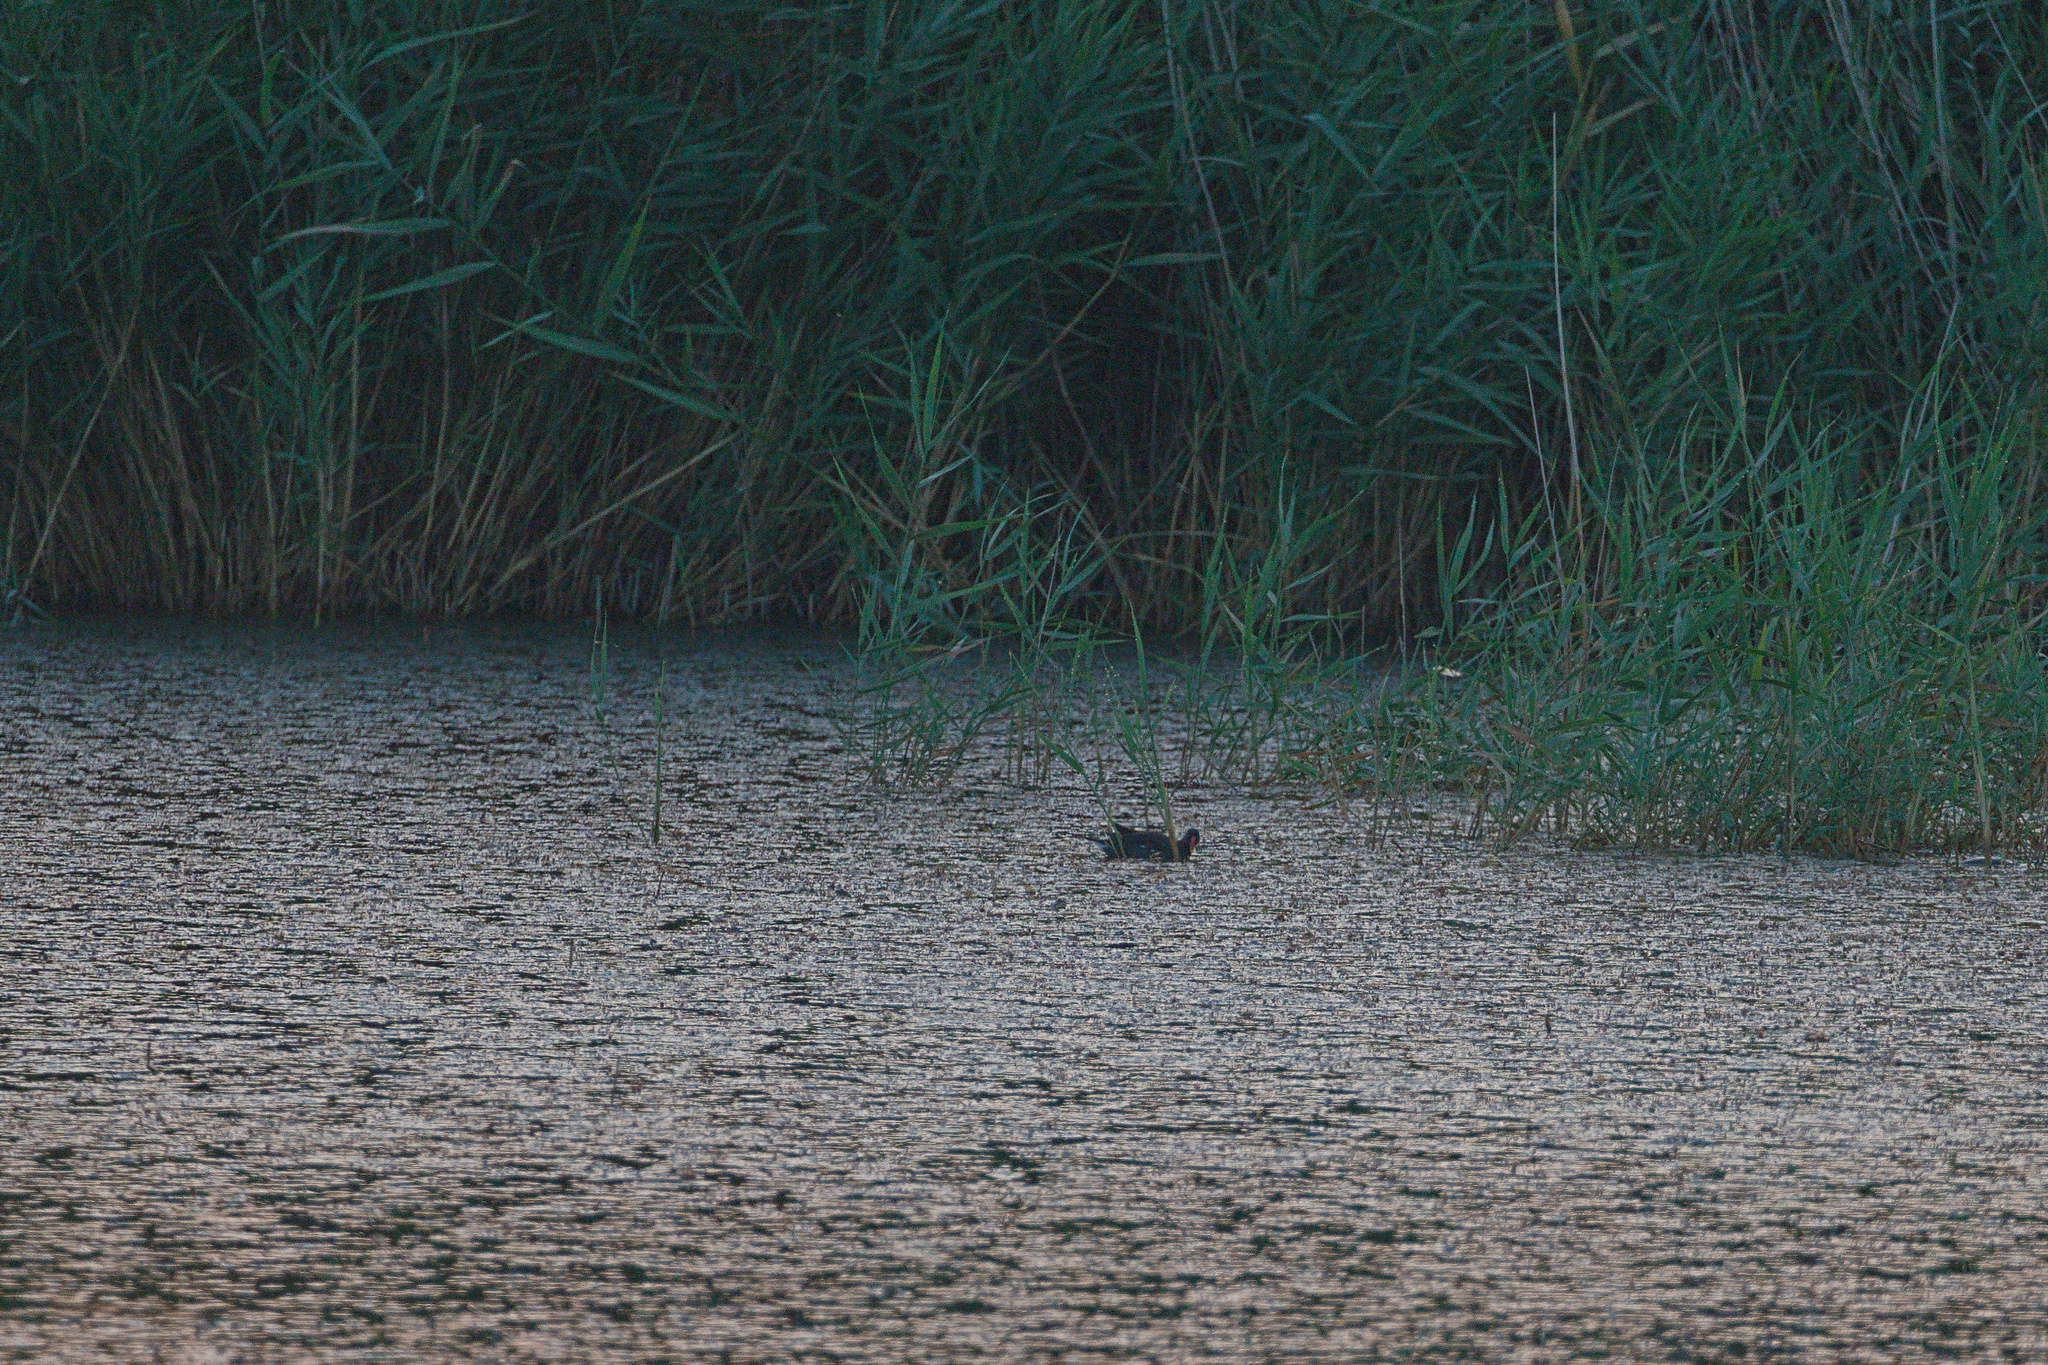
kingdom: Animalia
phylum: Chordata
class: Aves
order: Gruiformes
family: Rallidae
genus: Gallinula
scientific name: Gallinula chloropus
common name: Common moorhen
